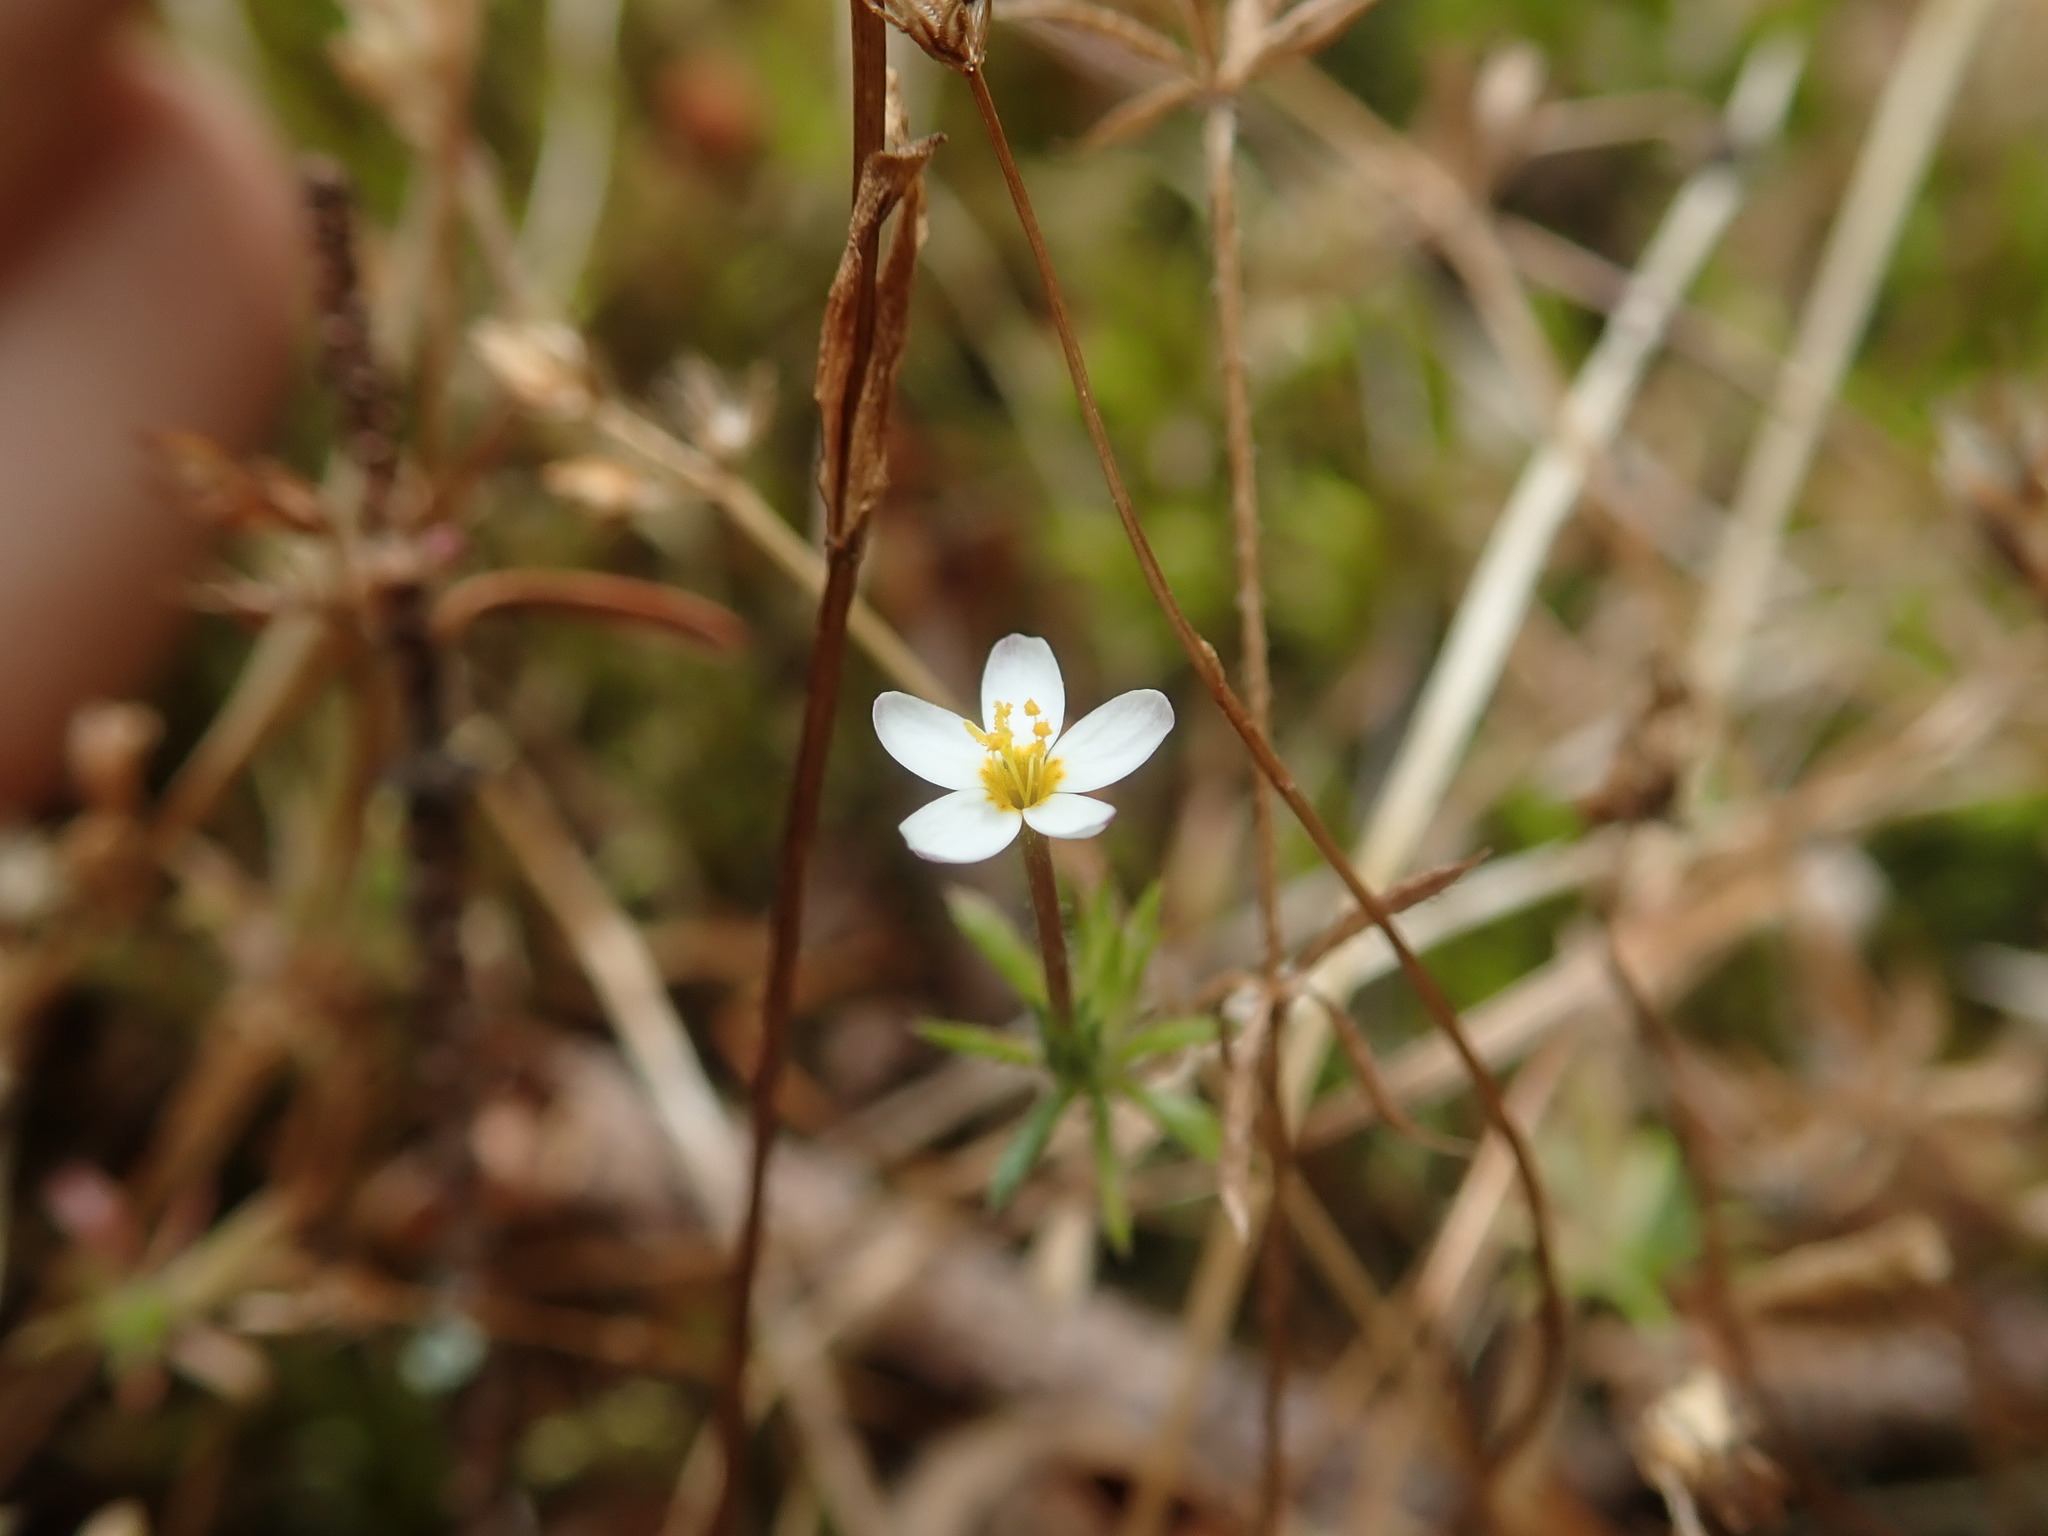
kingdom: Plantae
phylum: Tracheophyta
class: Magnoliopsida
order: Ericales
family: Polemoniaceae
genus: Leptosiphon
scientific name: Leptosiphon minimus
